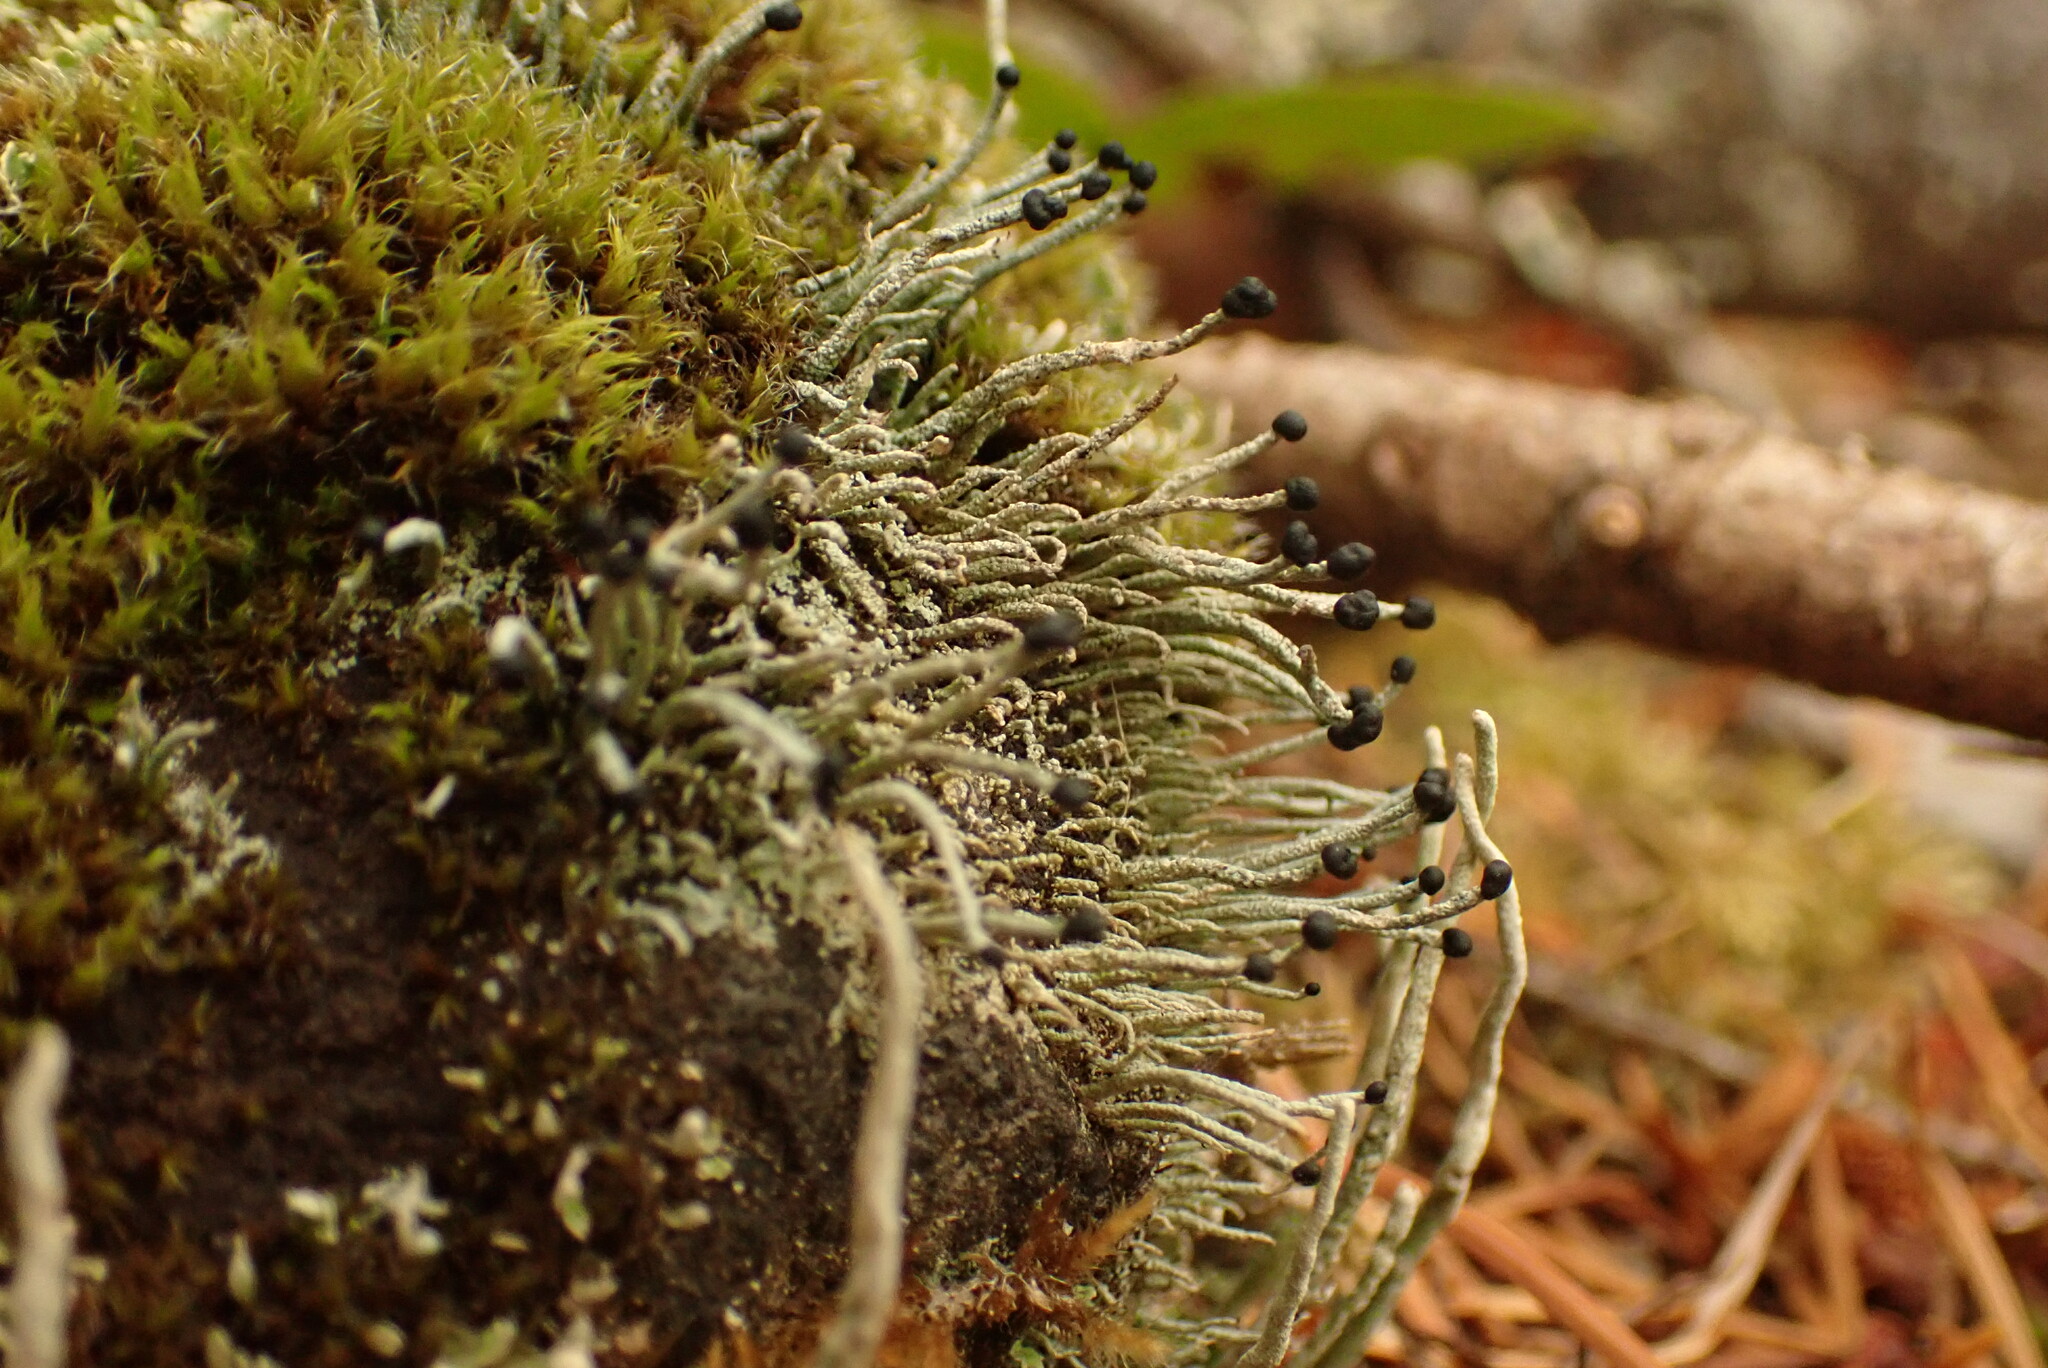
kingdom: Fungi
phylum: Ascomycota
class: Lecanoromycetes
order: Lecanorales
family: Cladoniaceae
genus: Pilophorus
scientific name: Pilophorus acicularis
